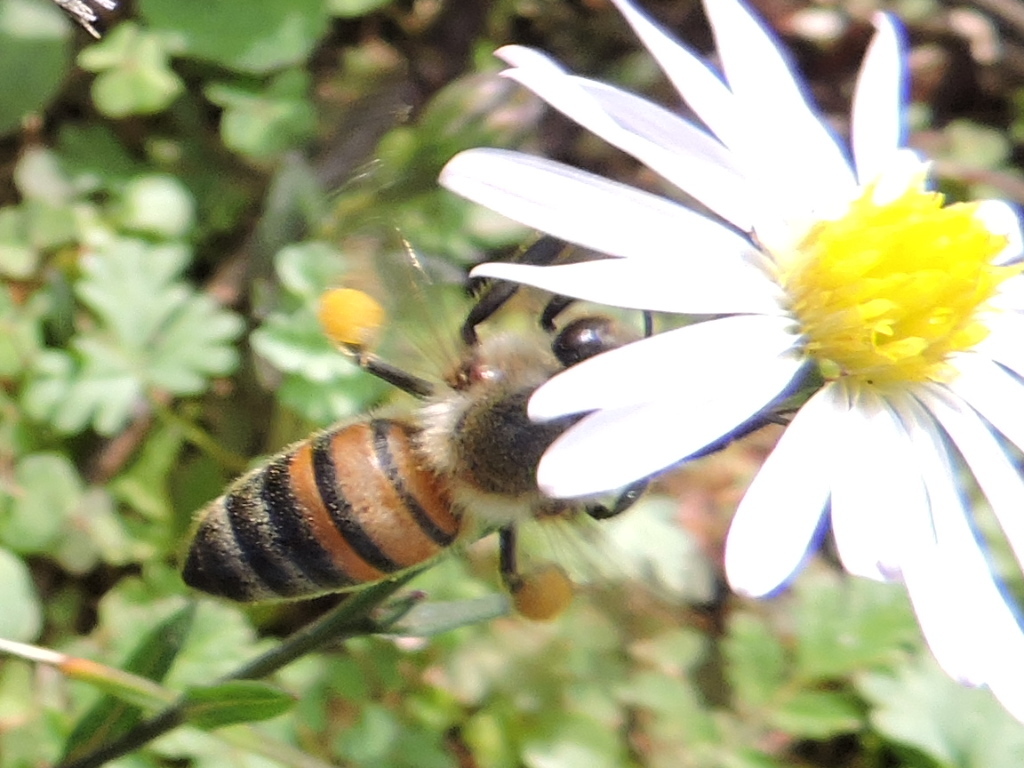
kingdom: Animalia
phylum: Arthropoda
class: Insecta
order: Hymenoptera
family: Apidae
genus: Apis
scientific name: Apis mellifera
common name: Honey bee
